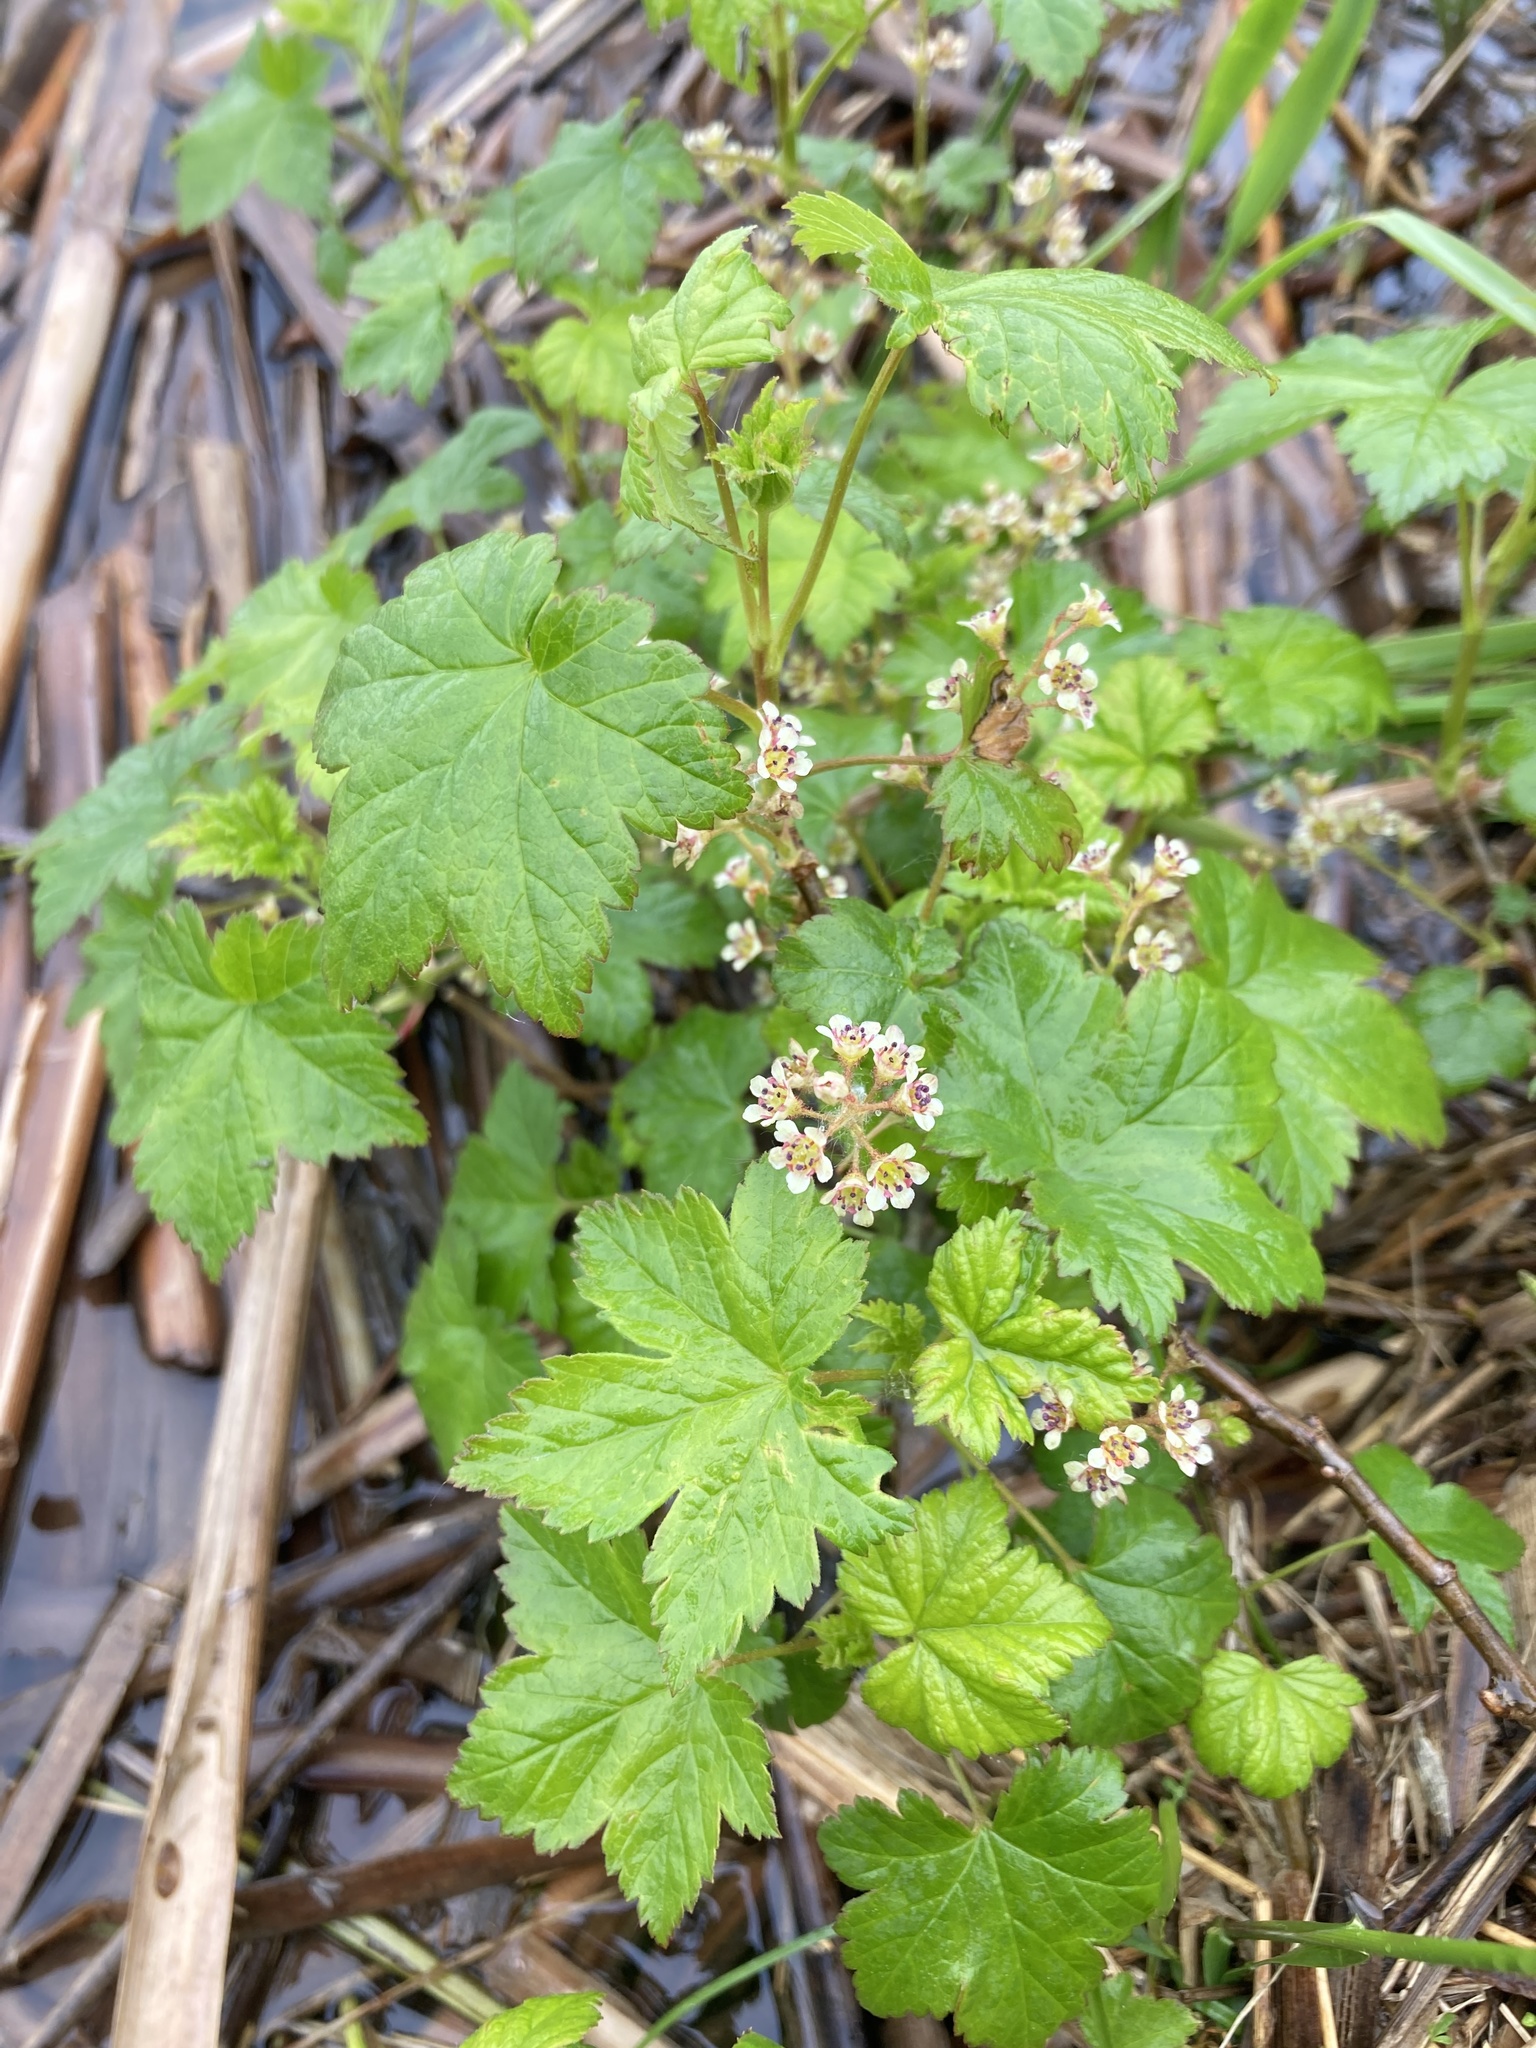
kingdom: Plantae
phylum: Tracheophyta
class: Magnoliopsida
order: Saxifragales
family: Grossulariaceae
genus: Ribes
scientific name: Ribes glandulosum
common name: Skunk currant
